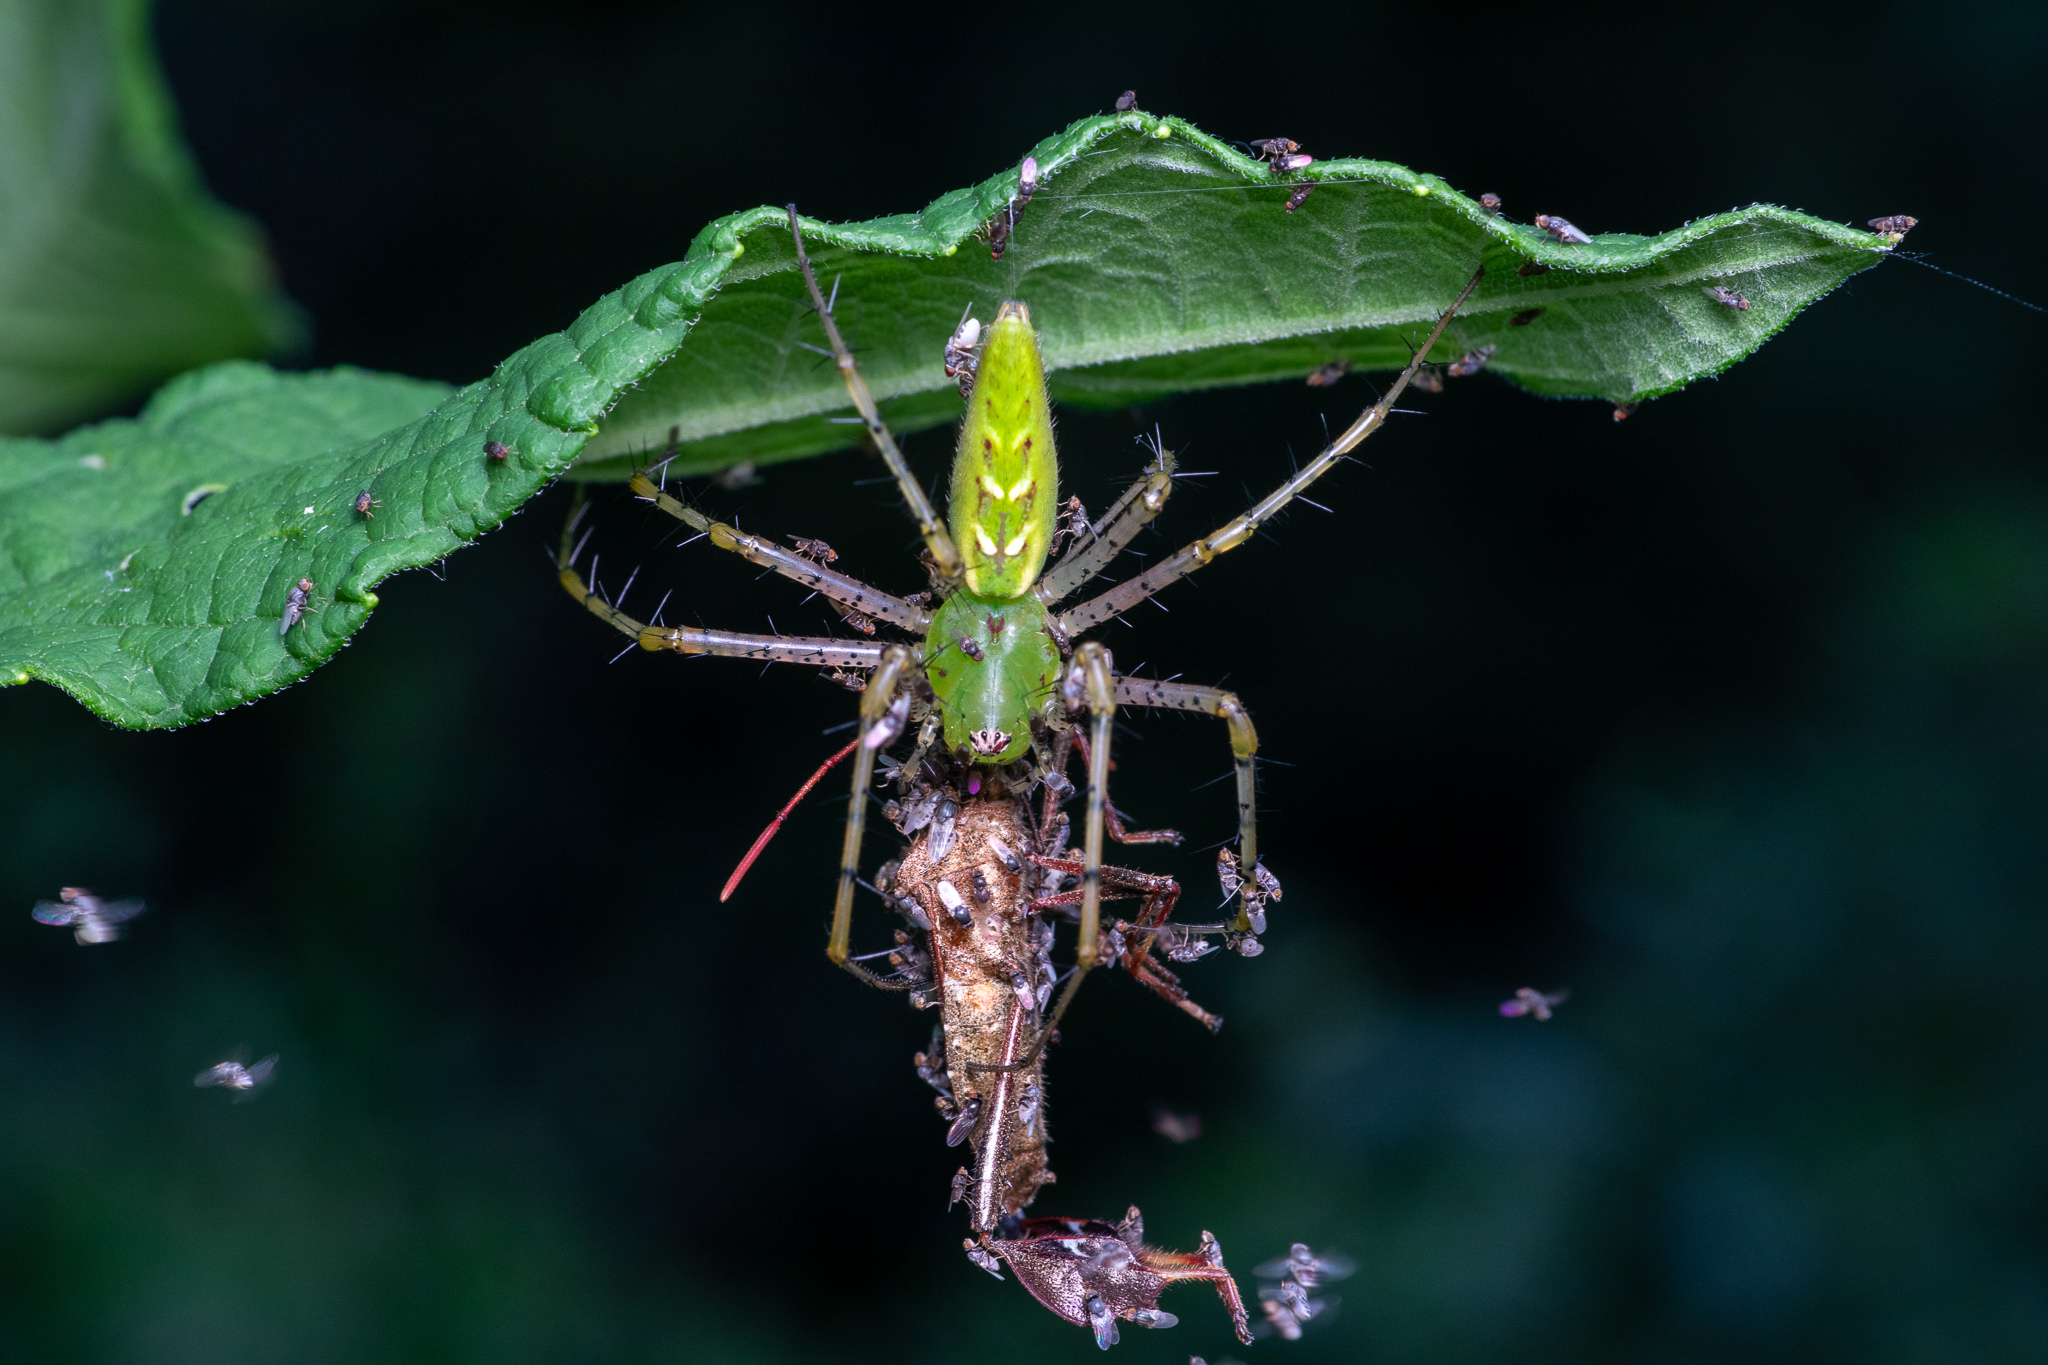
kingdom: Animalia
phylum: Arthropoda
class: Arachnida
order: Araneae
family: Oxyopidae
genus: Peucetia
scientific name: Peucetia viridans
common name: Lynx spiders
